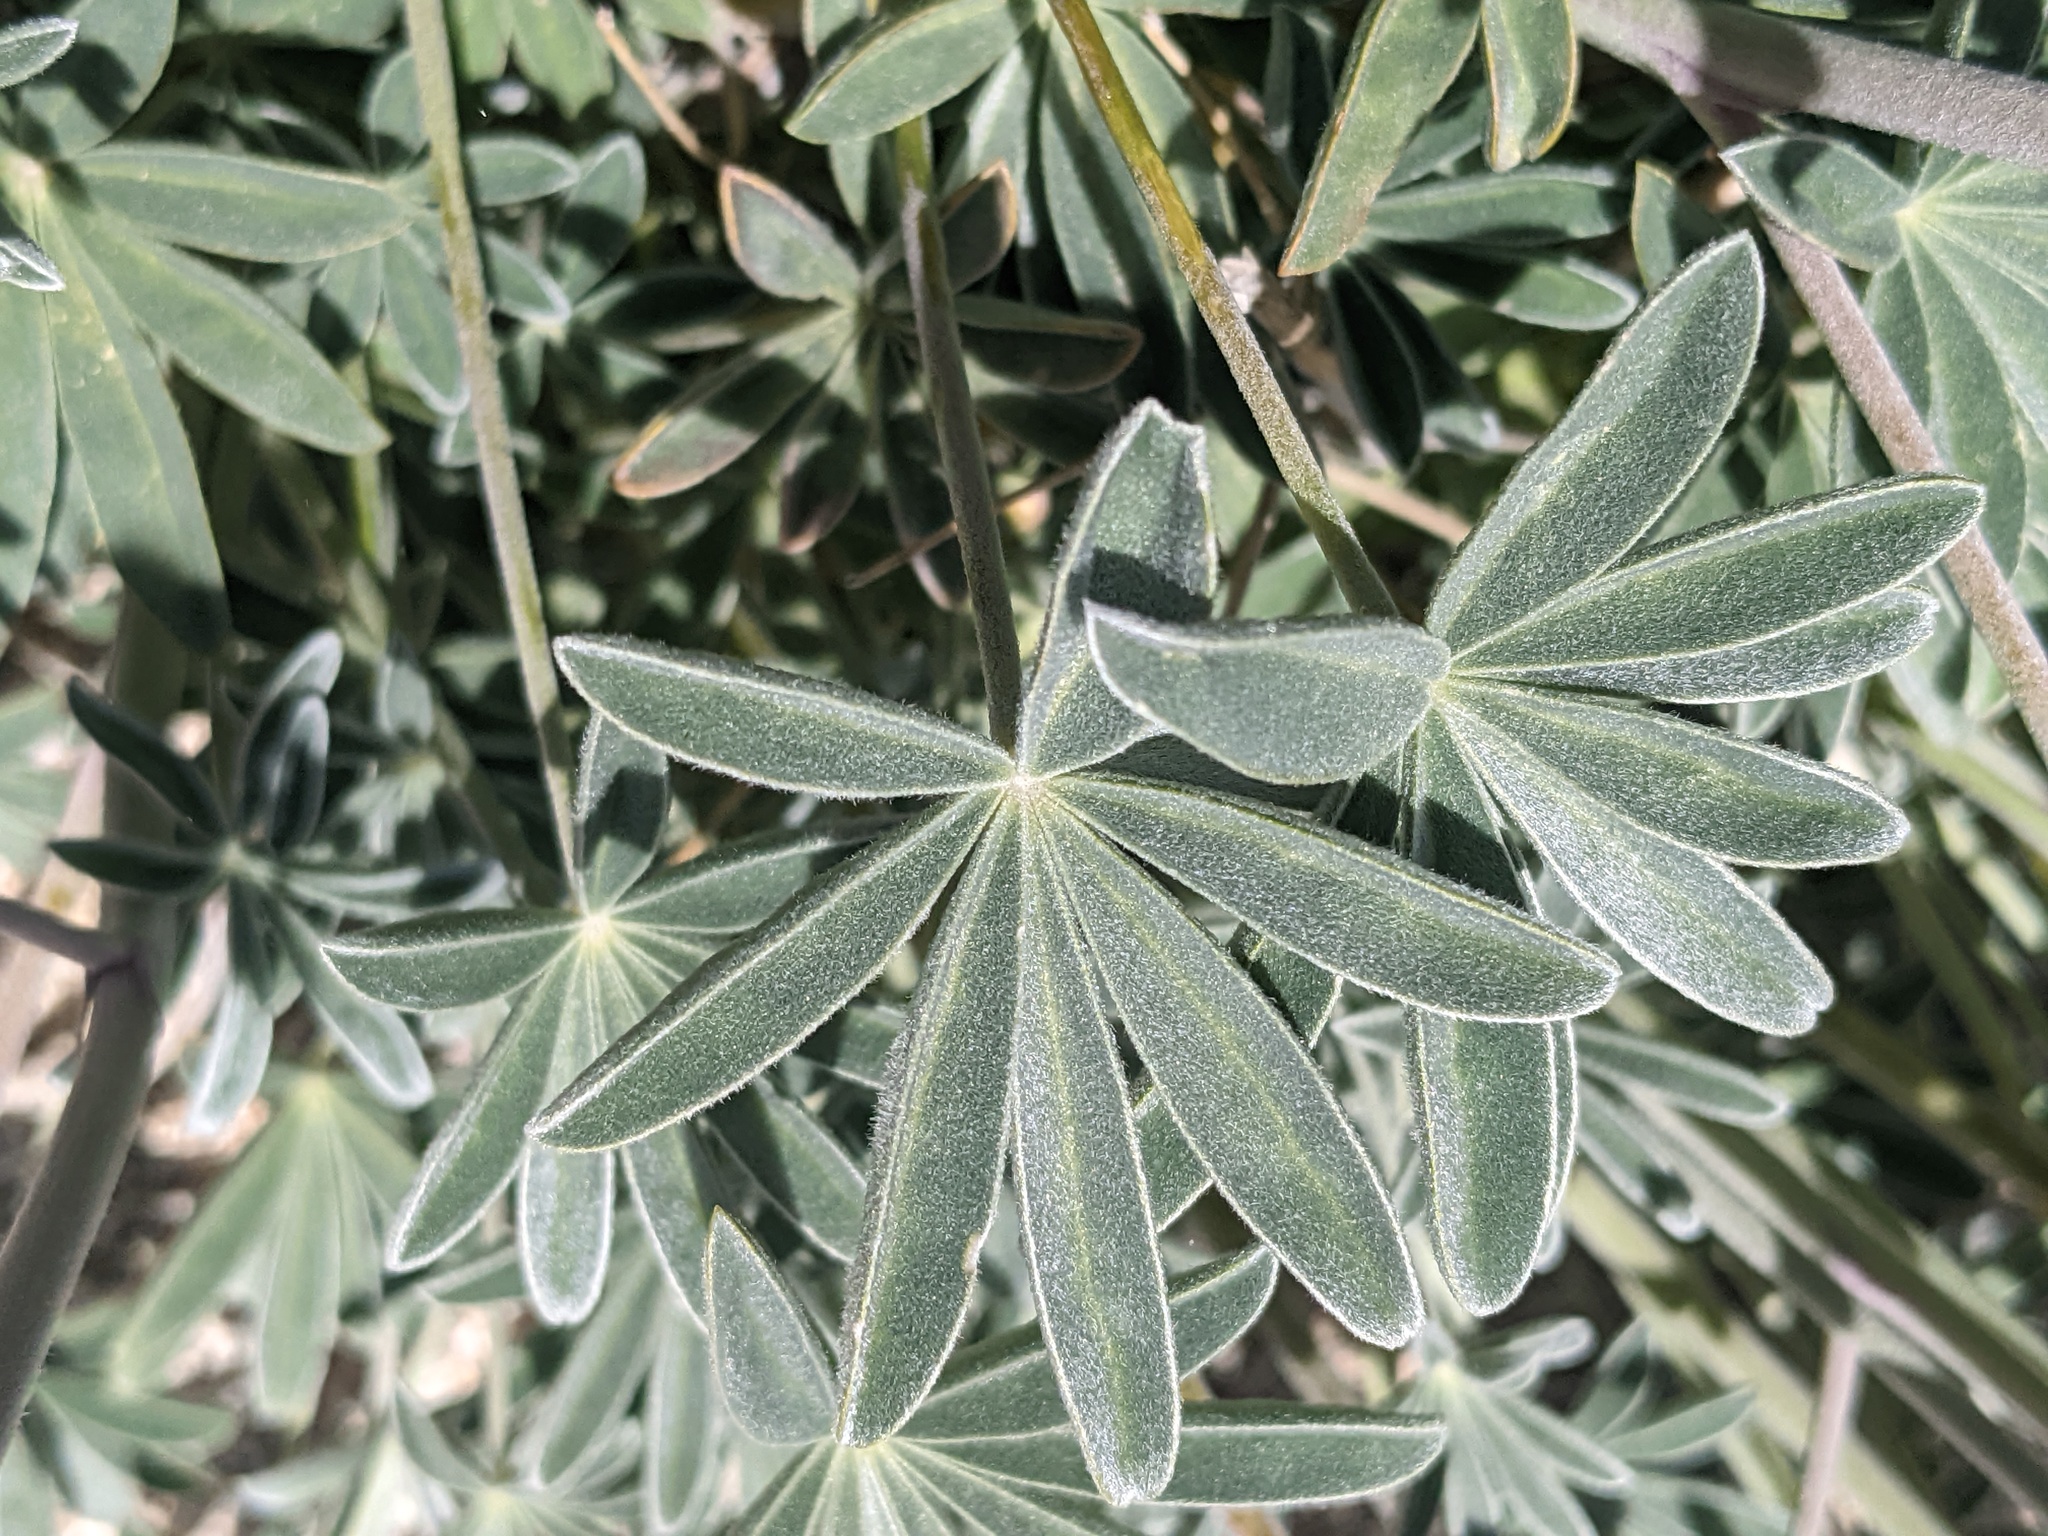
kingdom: Plantae
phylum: Tracheophyta
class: Magnoliopsida
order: Fabales
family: Fabaceae
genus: Lupinus
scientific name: Lupinus excubitus
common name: Grape soda lupine
